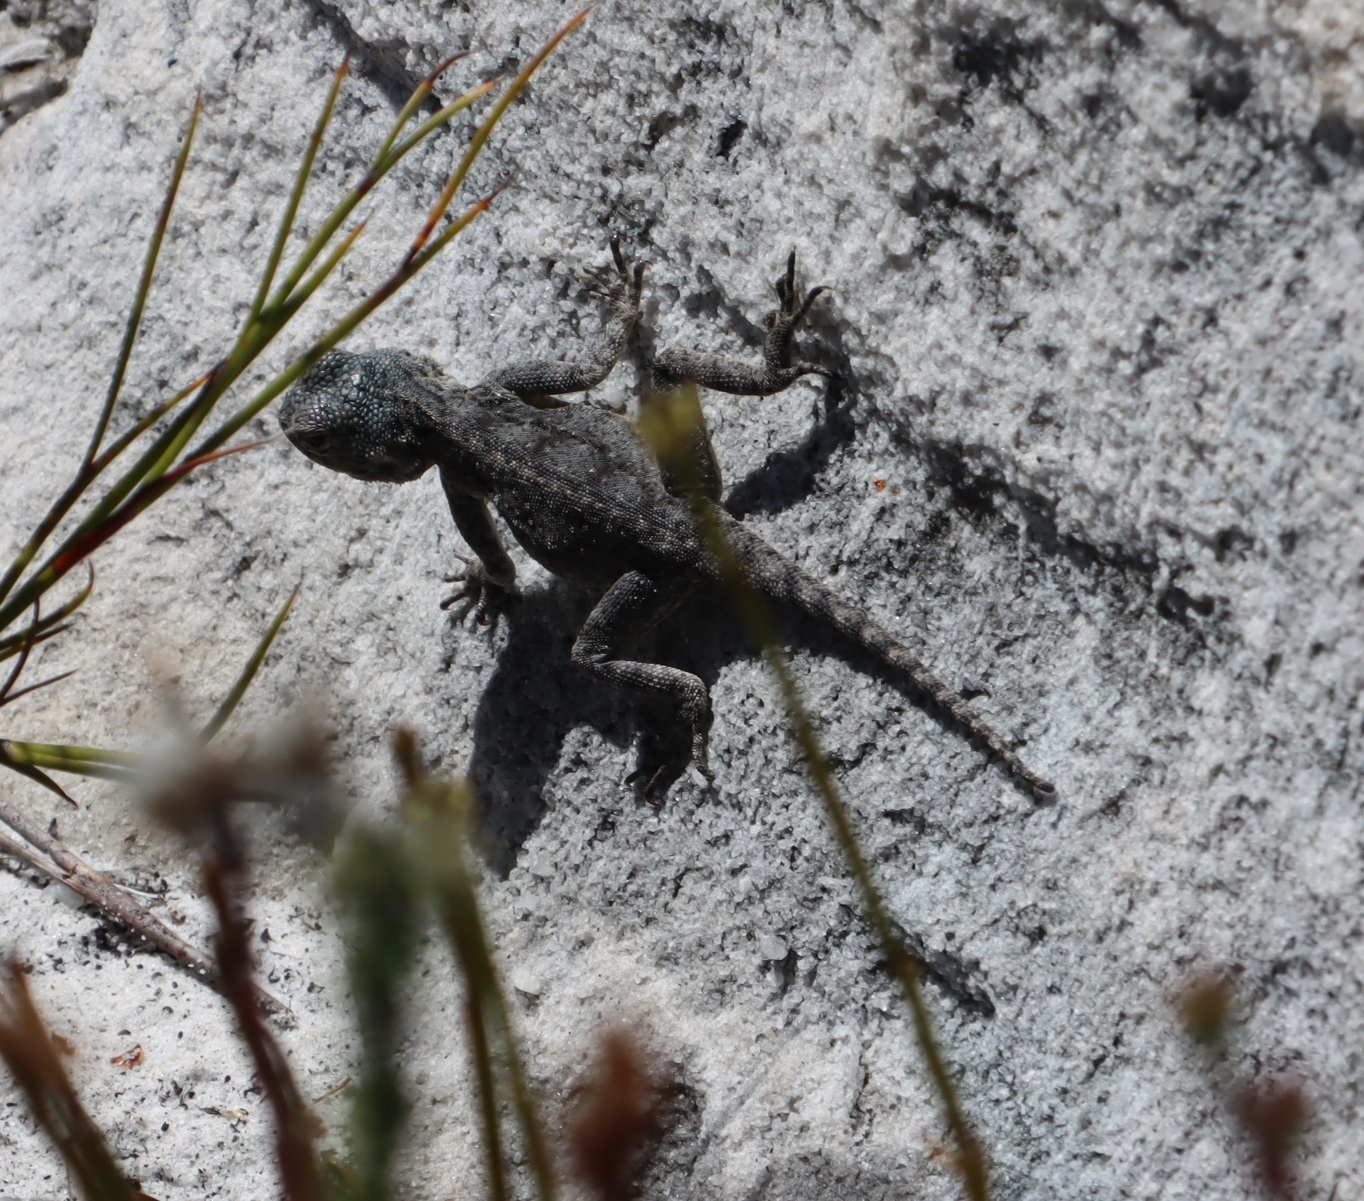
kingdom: Animalia
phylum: Chordata
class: Squamata
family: Agamidae
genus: Agama
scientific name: Agama atra
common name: Southern african rock agama
